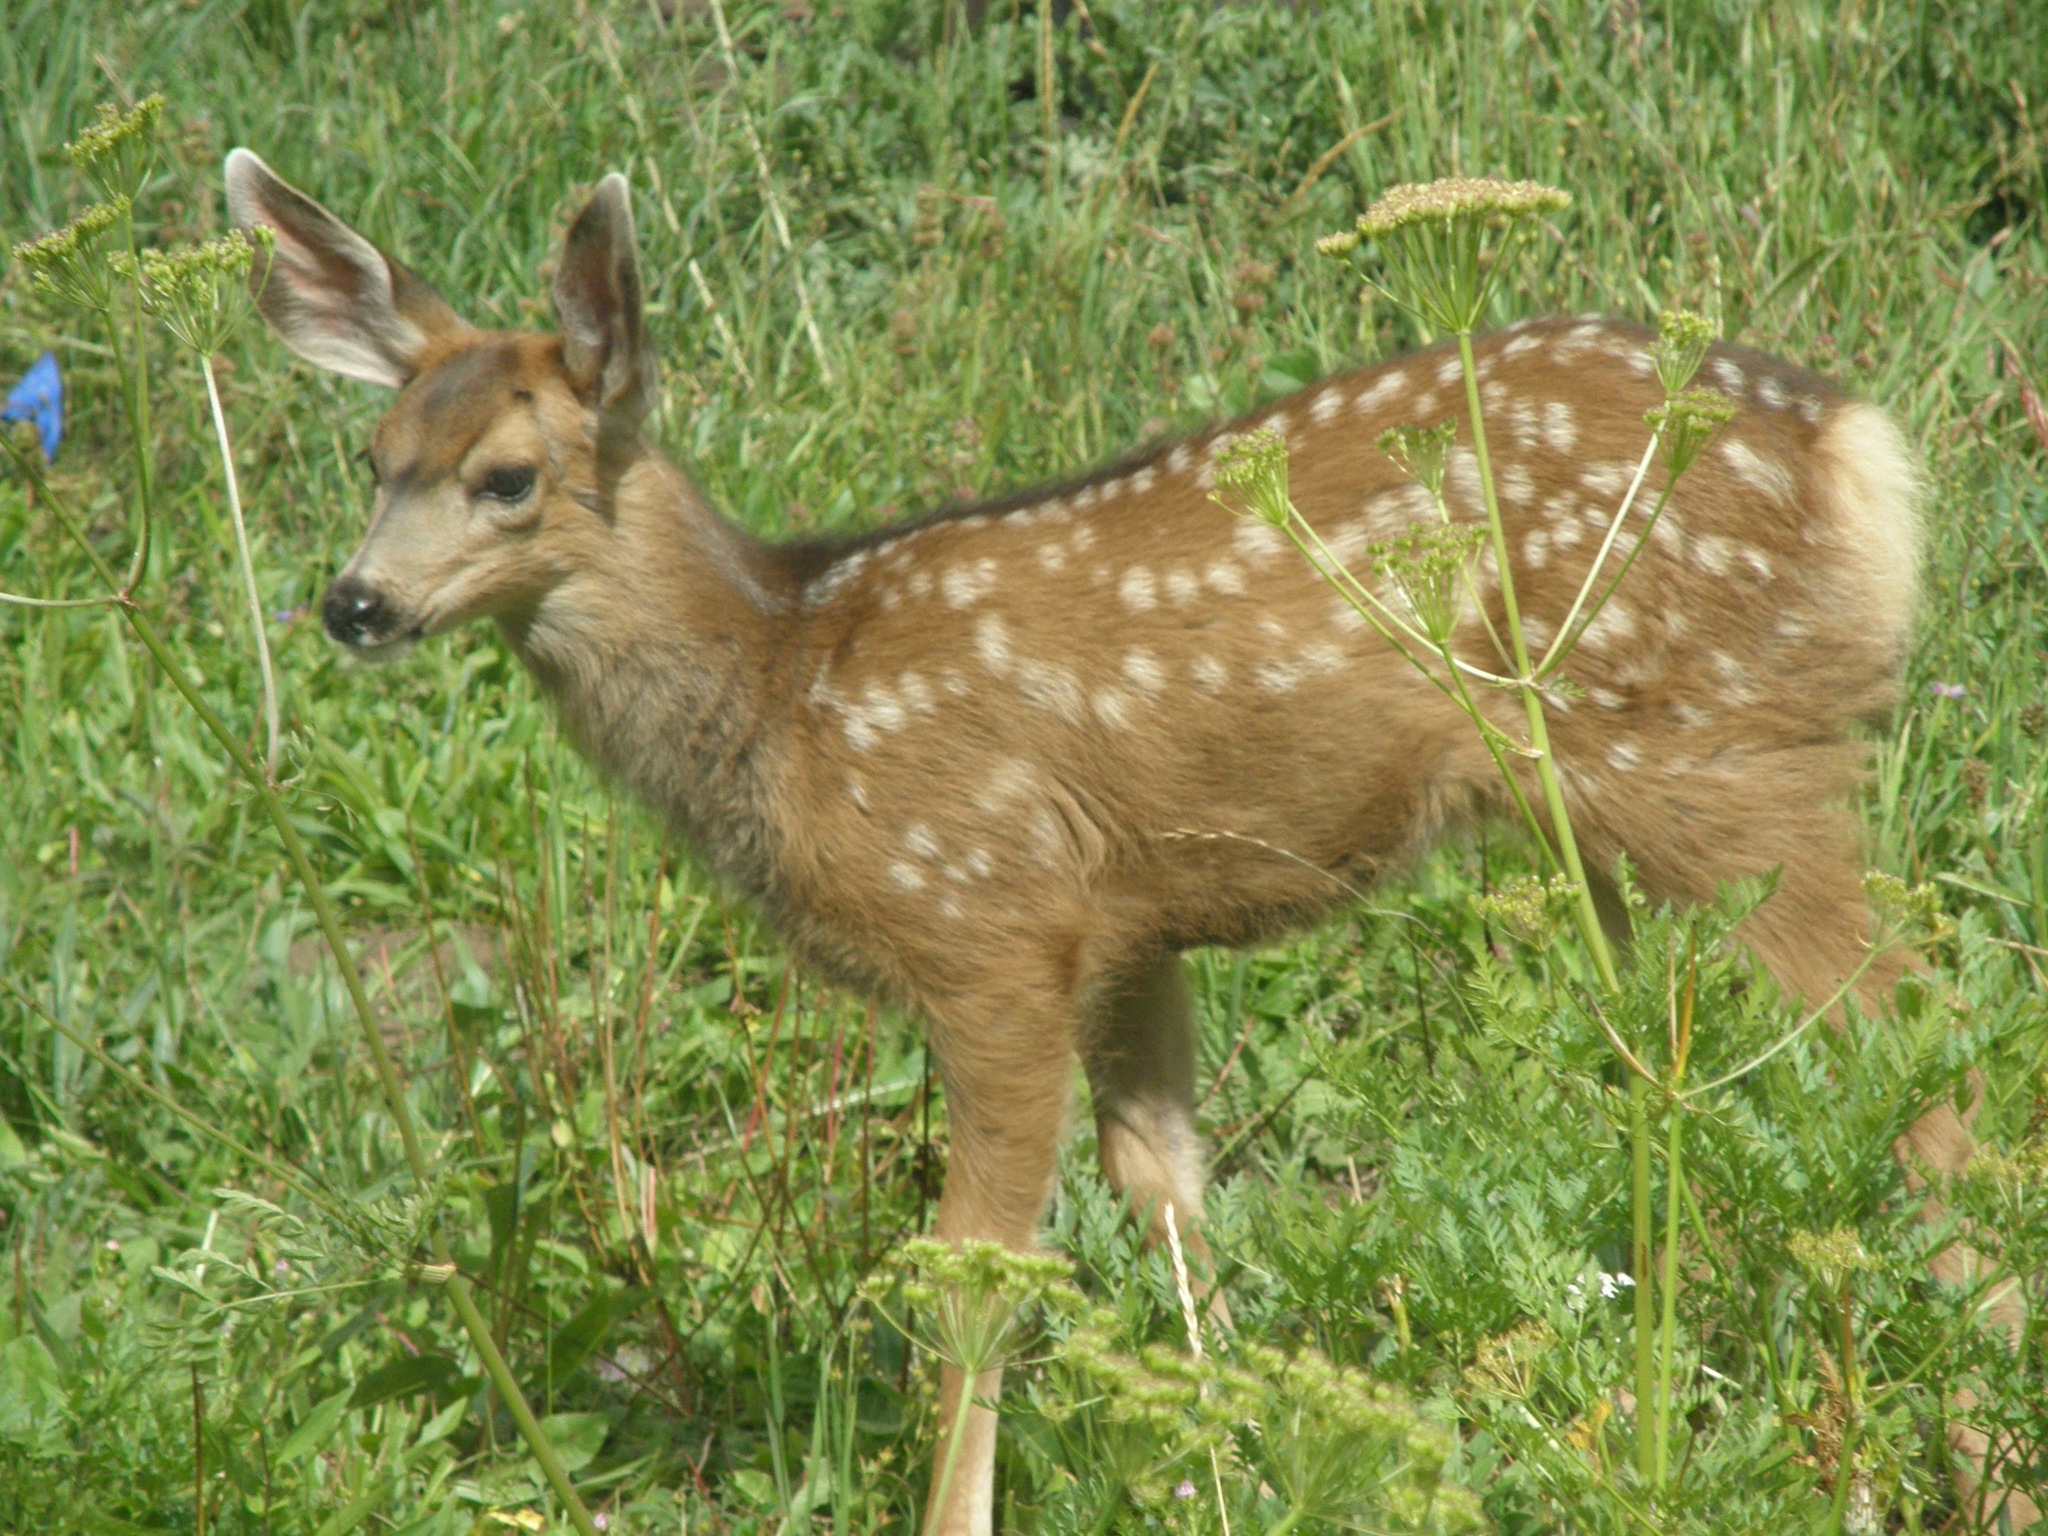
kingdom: Animalia
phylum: Chordata
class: Mammalia
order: Artiodactyla
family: Cervidae
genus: Odocoileus
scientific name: Odocoileus hemionus
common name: Mule deer
